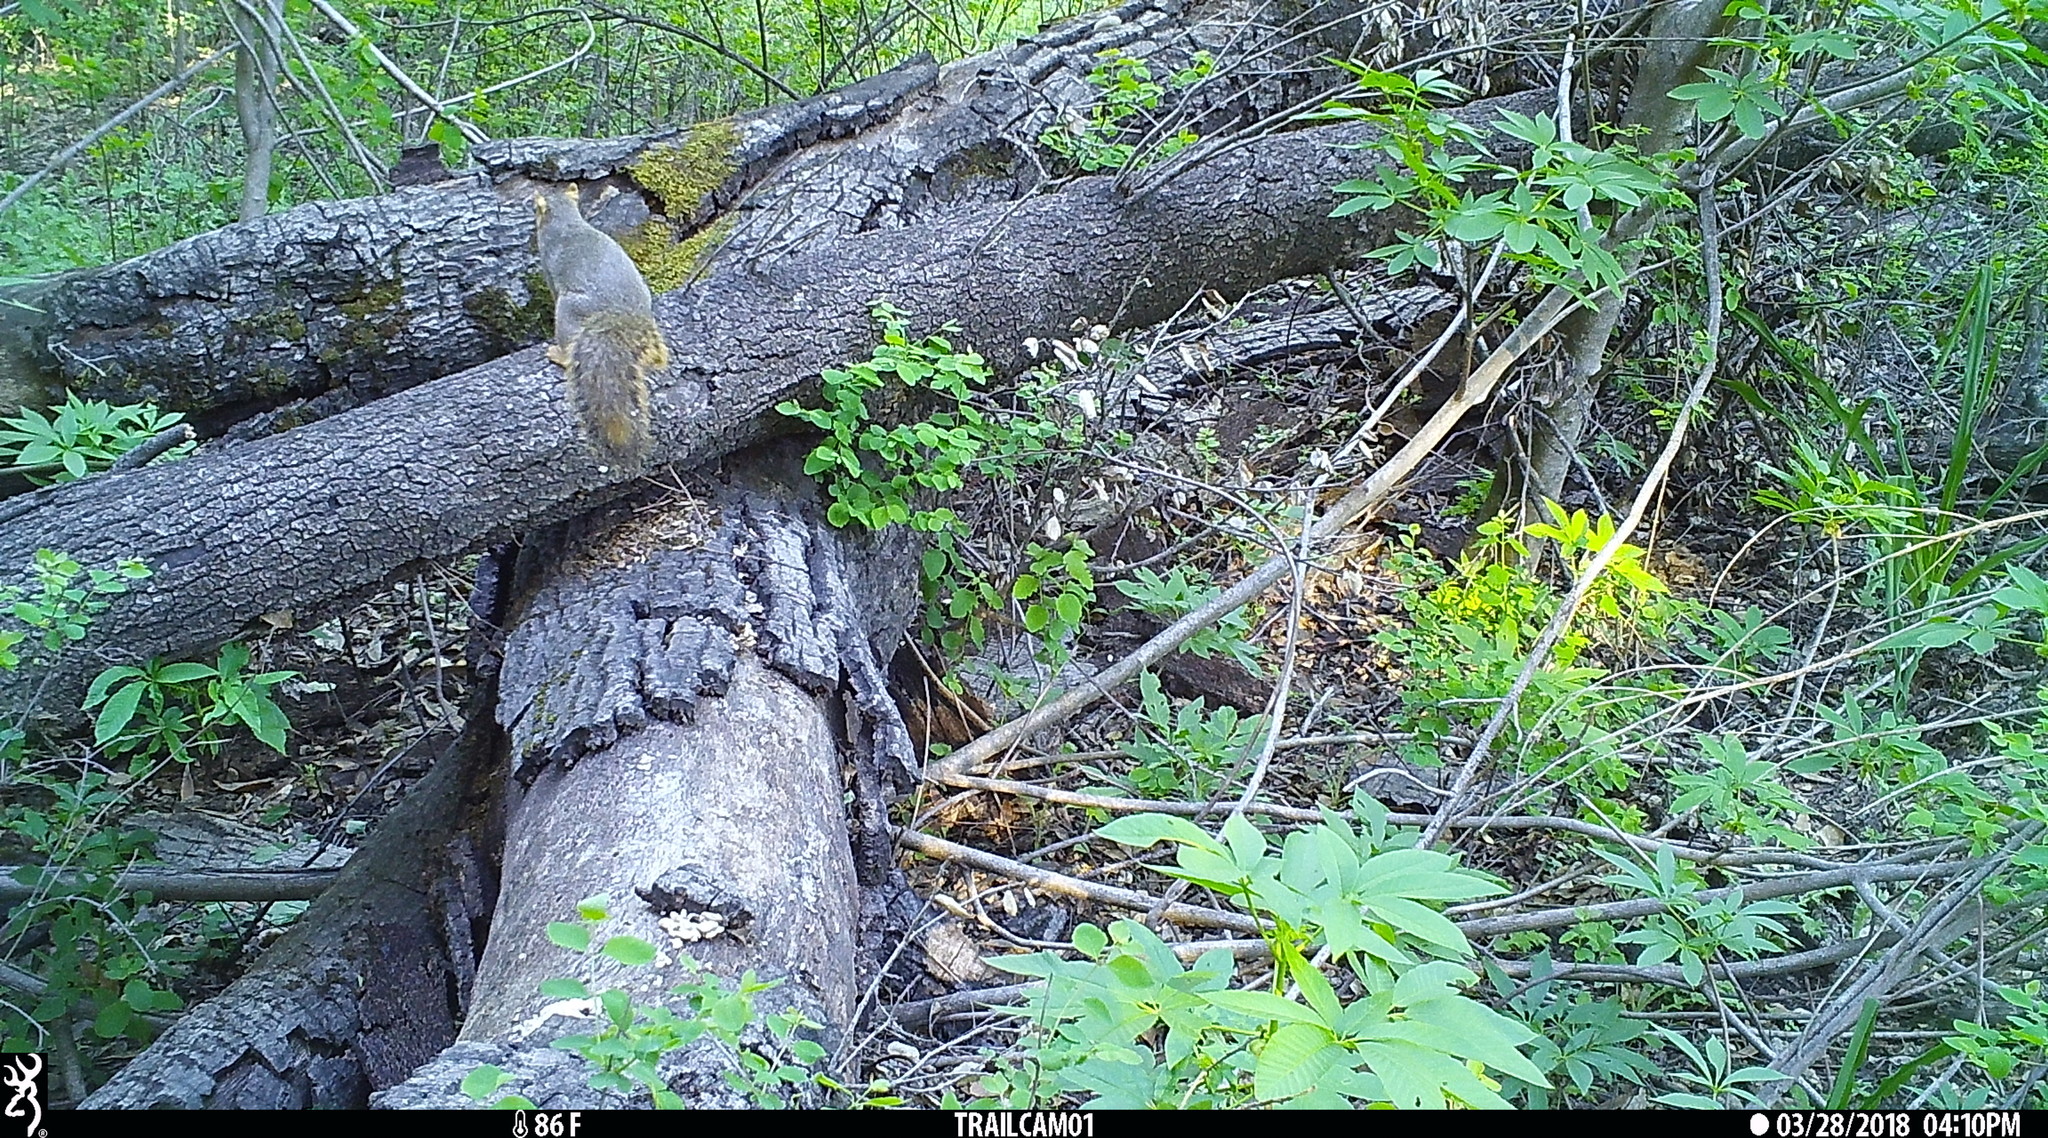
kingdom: Animalia
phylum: Chordata
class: Mammalia
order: Rodentia
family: Sciuridae
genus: Sciurus
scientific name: Sciurus niger
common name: Fox squirrel
